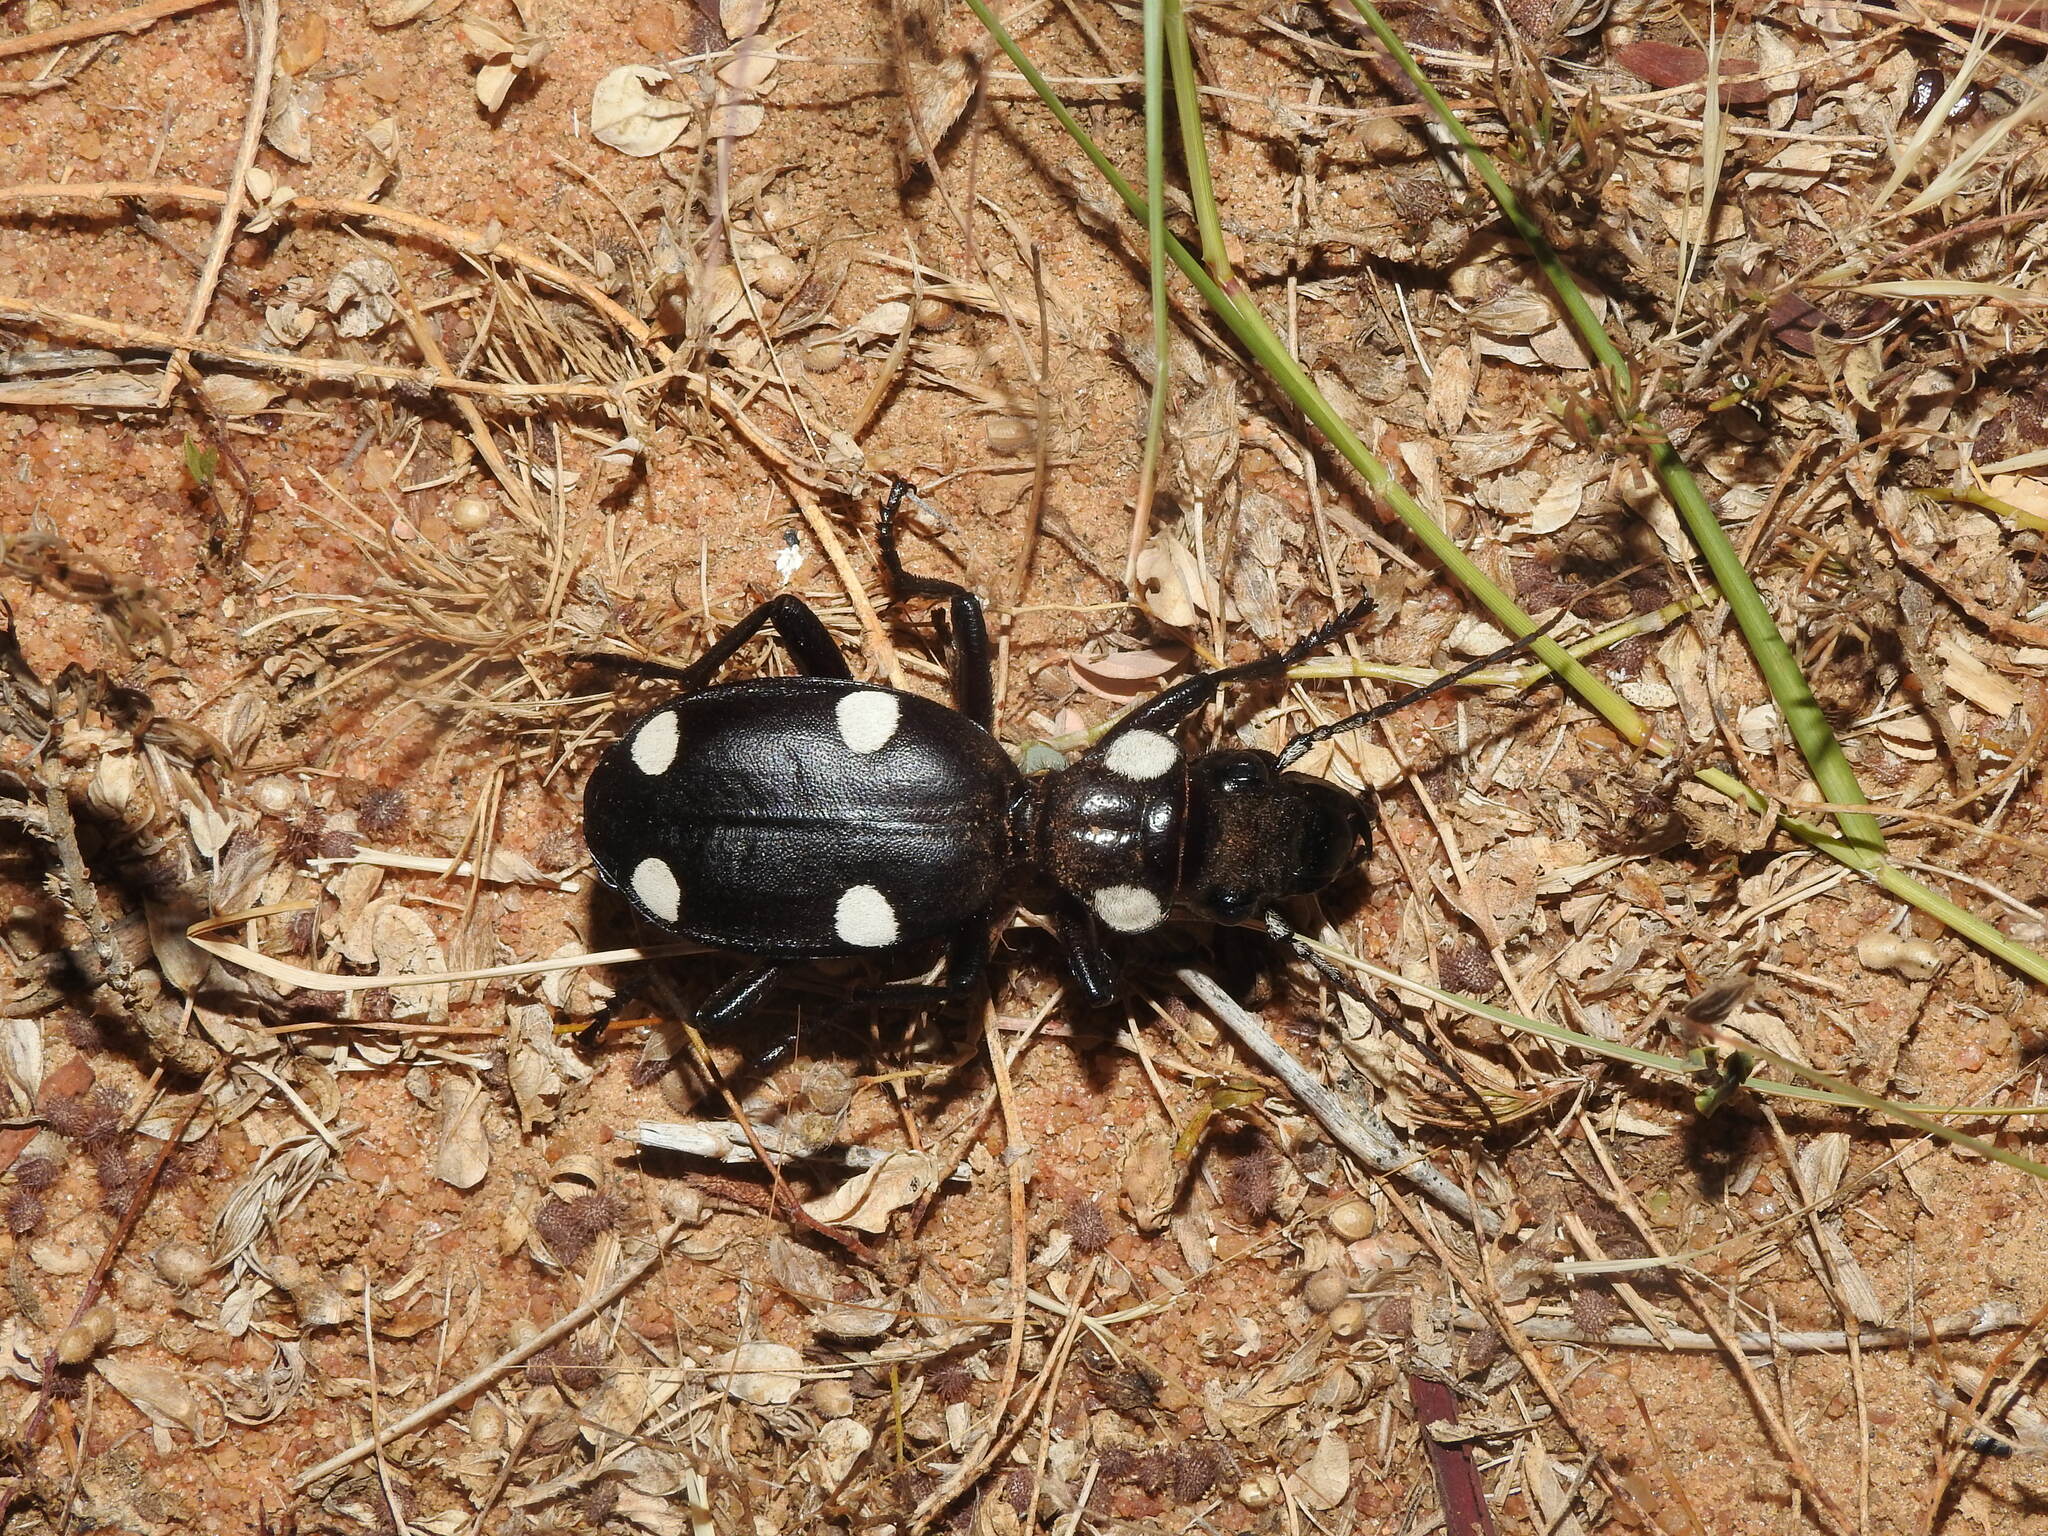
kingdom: Animalia
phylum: Arthropoda
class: Insecta
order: Coleoptera
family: Carabidae
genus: Anthia
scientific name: Anthia sexguttata
